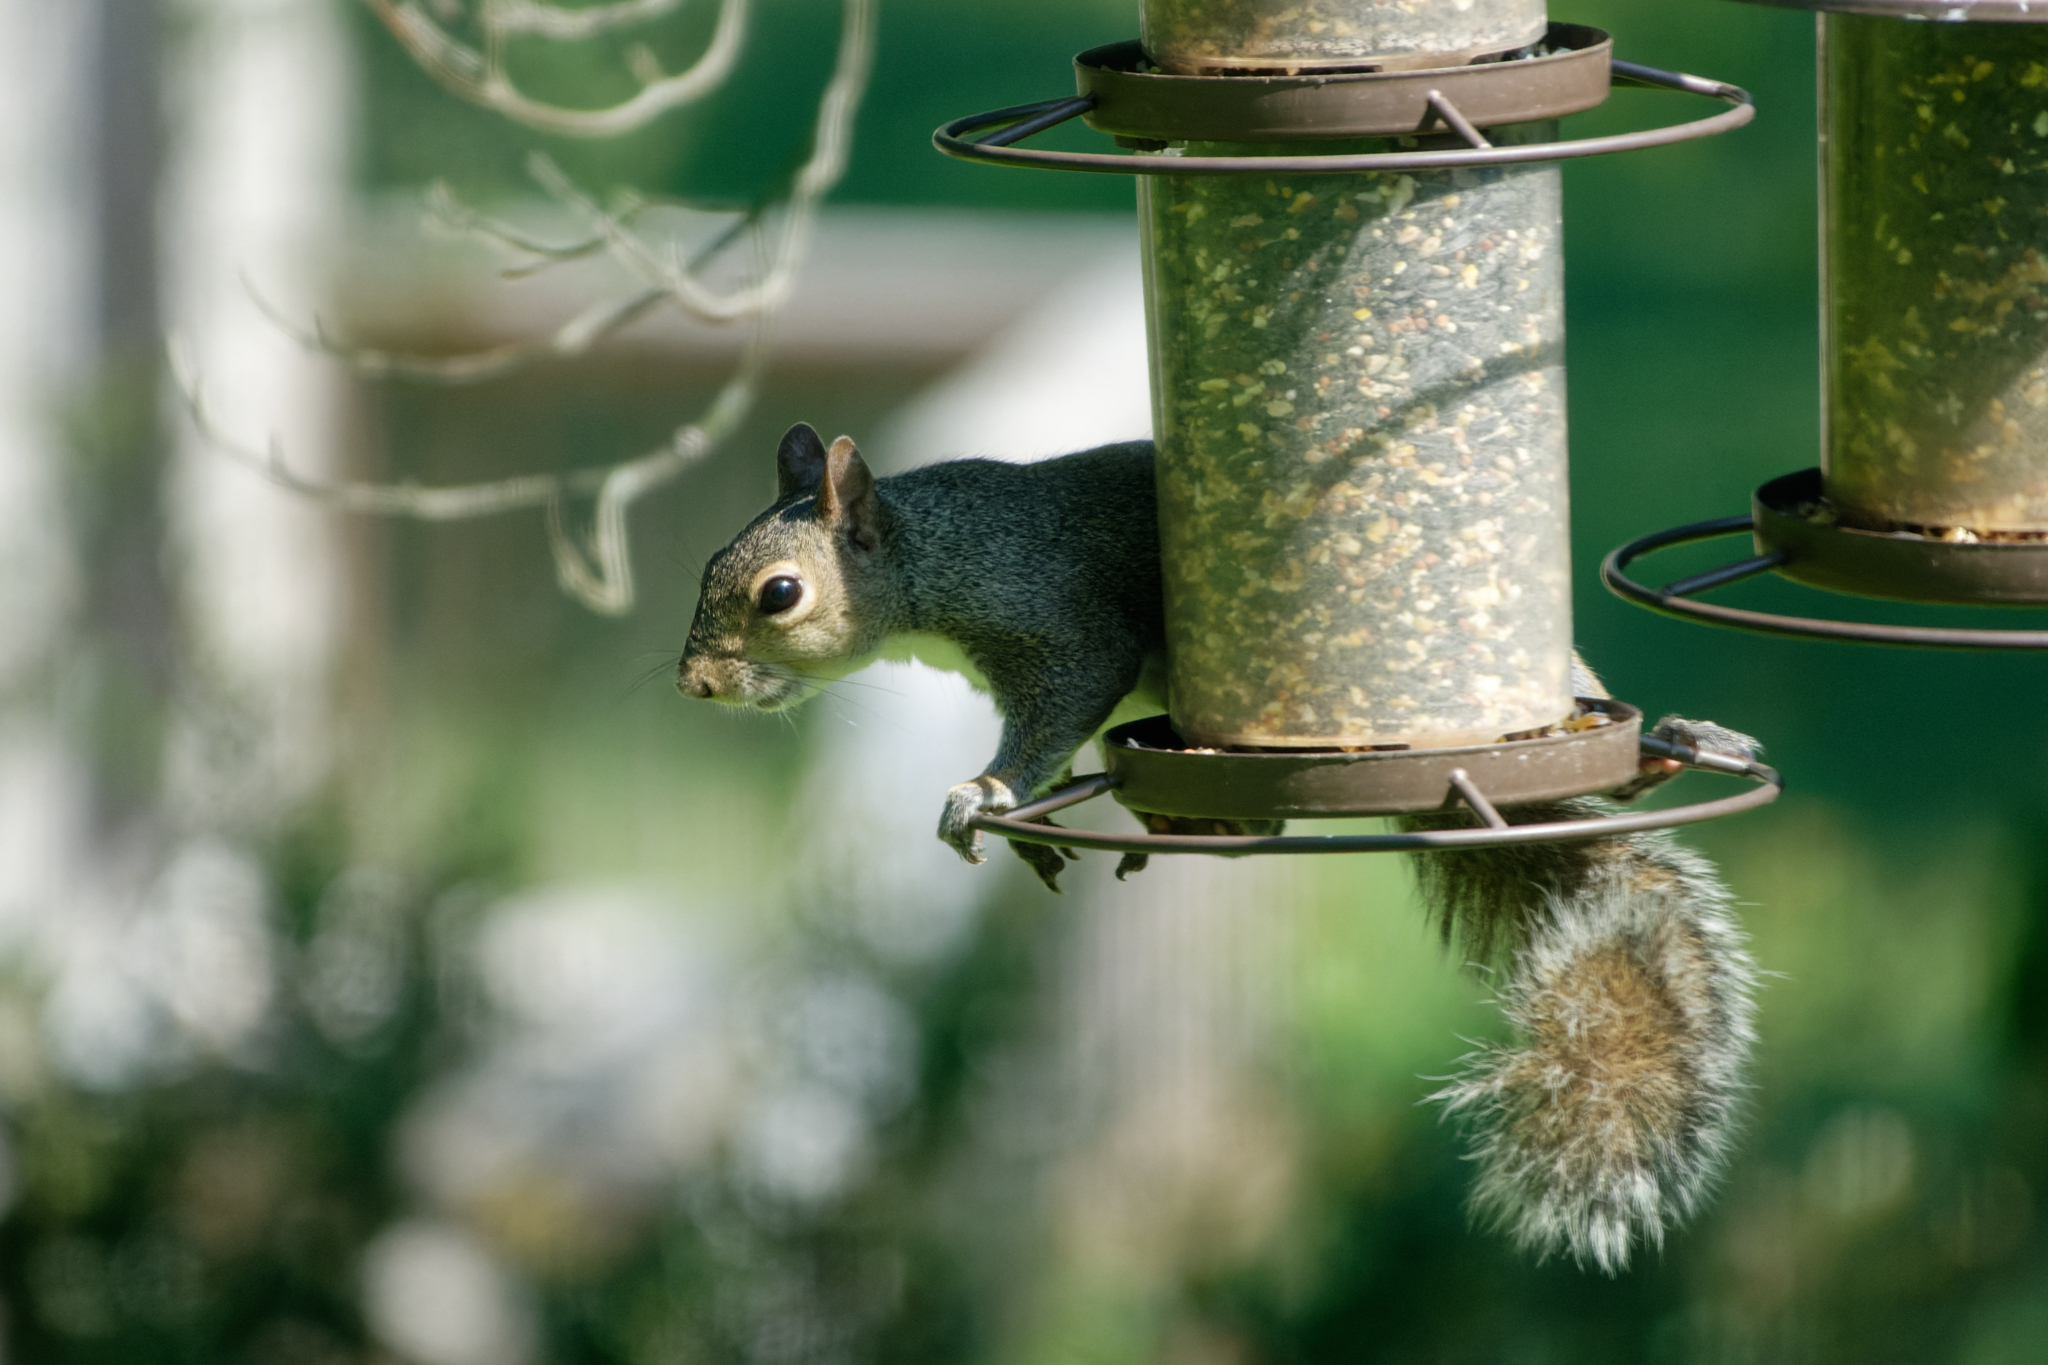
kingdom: Animalia
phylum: Chordata
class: Mammalia
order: Rodentia
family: Sciuridae
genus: Sciurus
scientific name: Sciurus carolinensis
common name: Eastern gray squirrel
